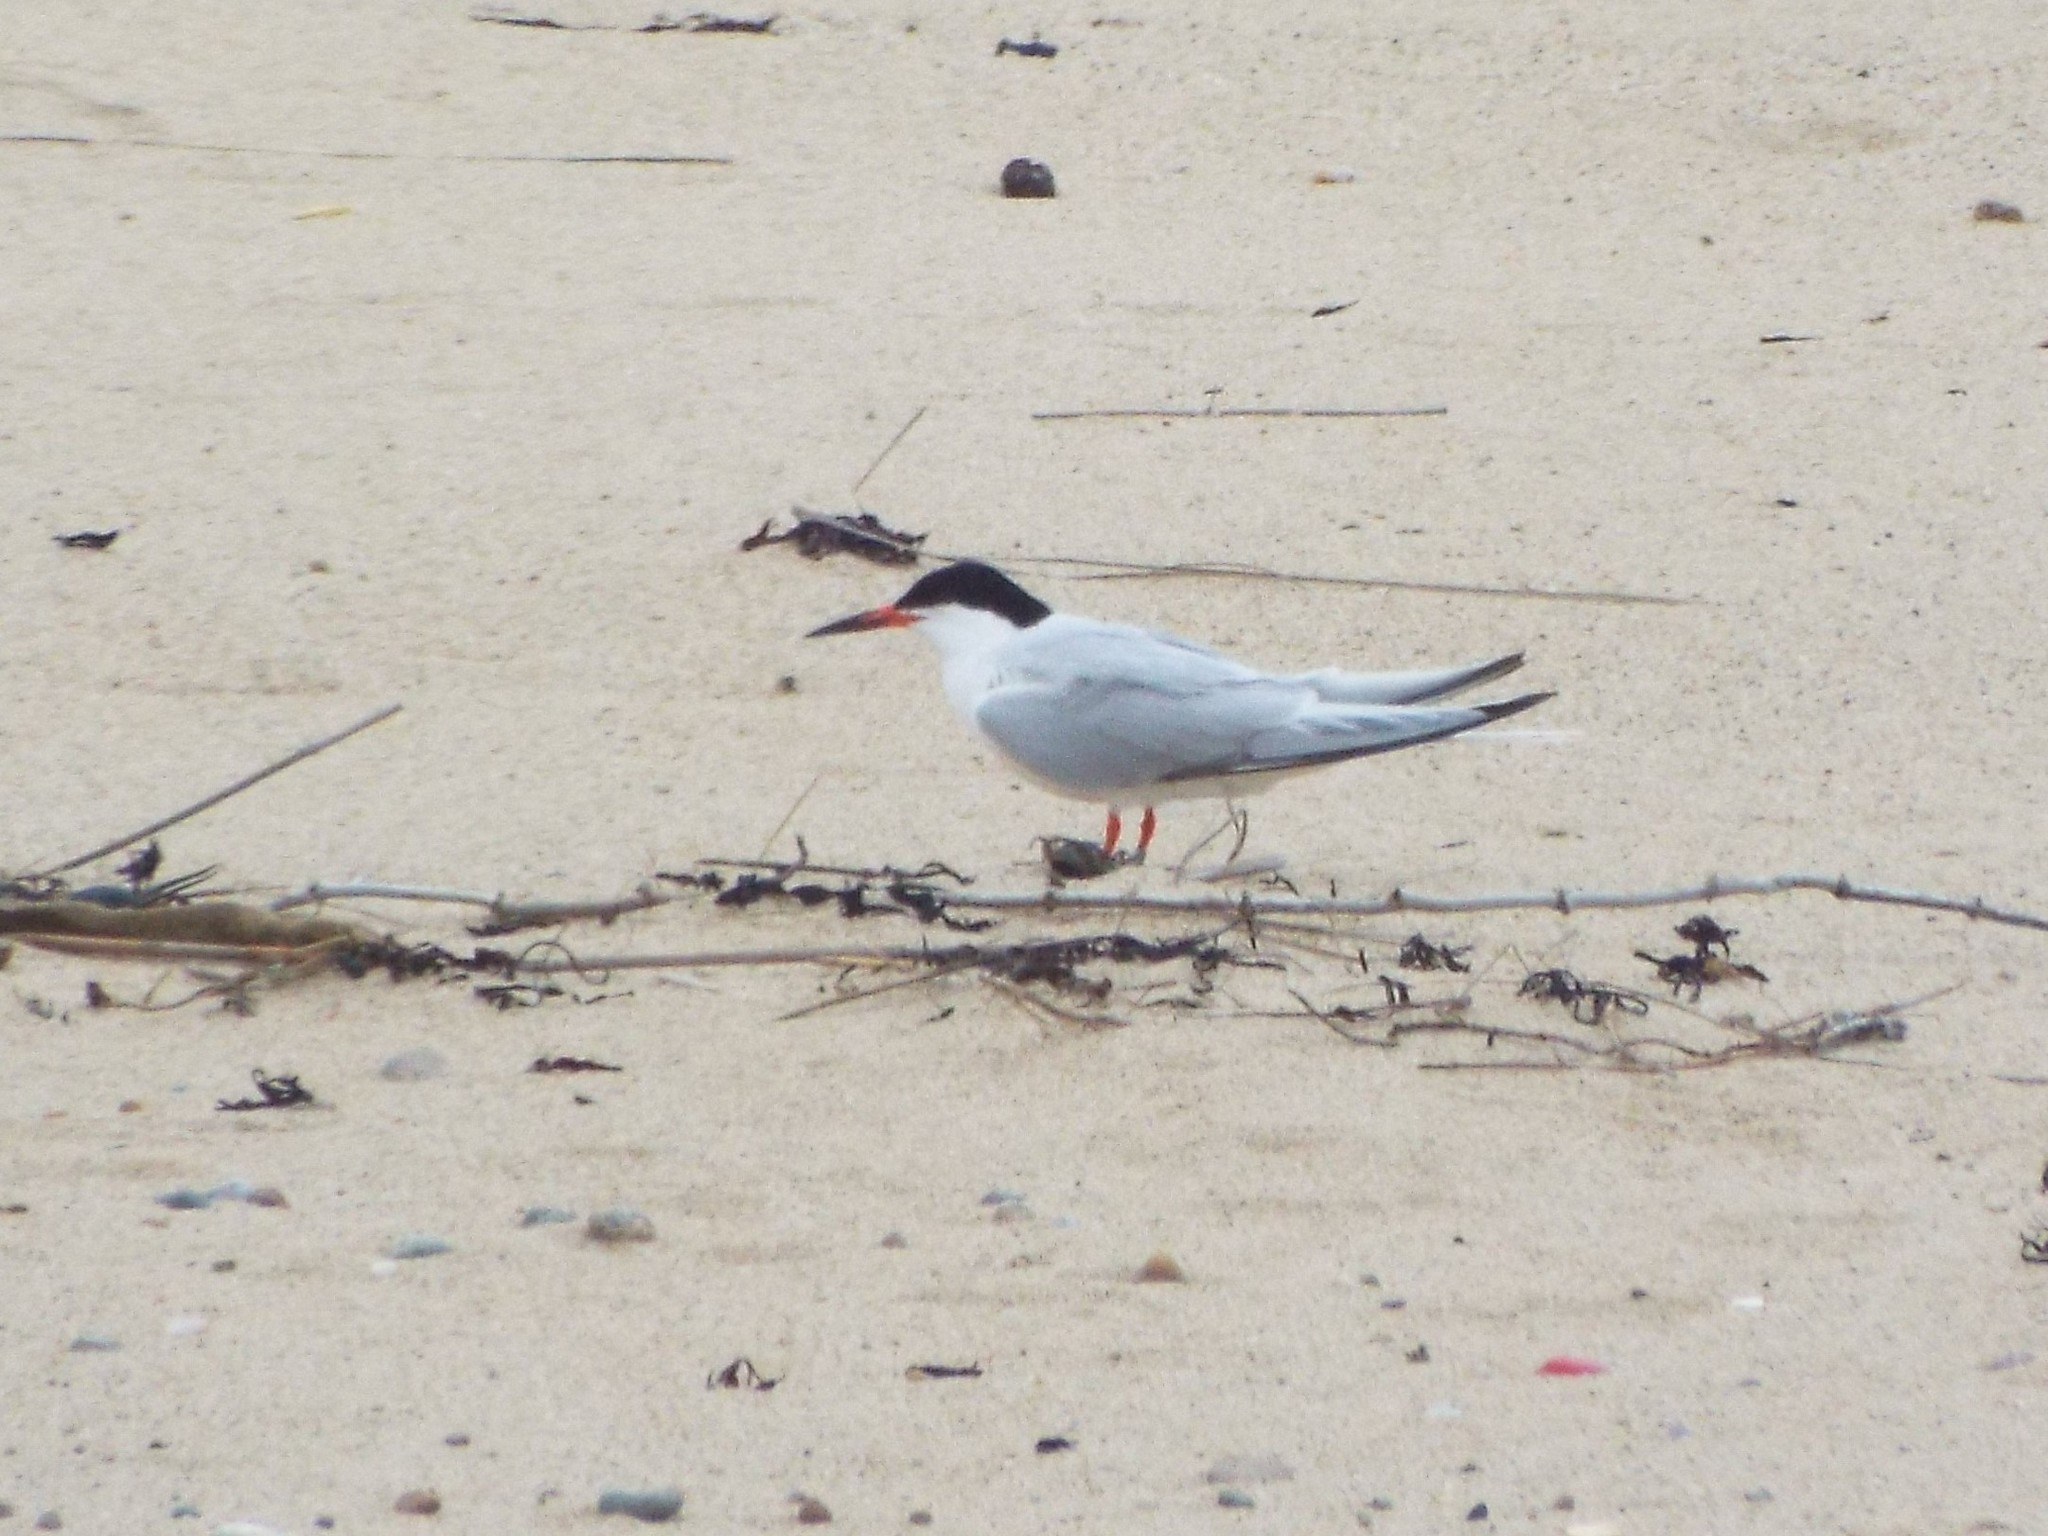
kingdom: Animalia
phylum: Chordata
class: Aves
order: Charadriiformes
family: Laridae
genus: Sterna
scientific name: Sterna dougallii
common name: Roseate tern
